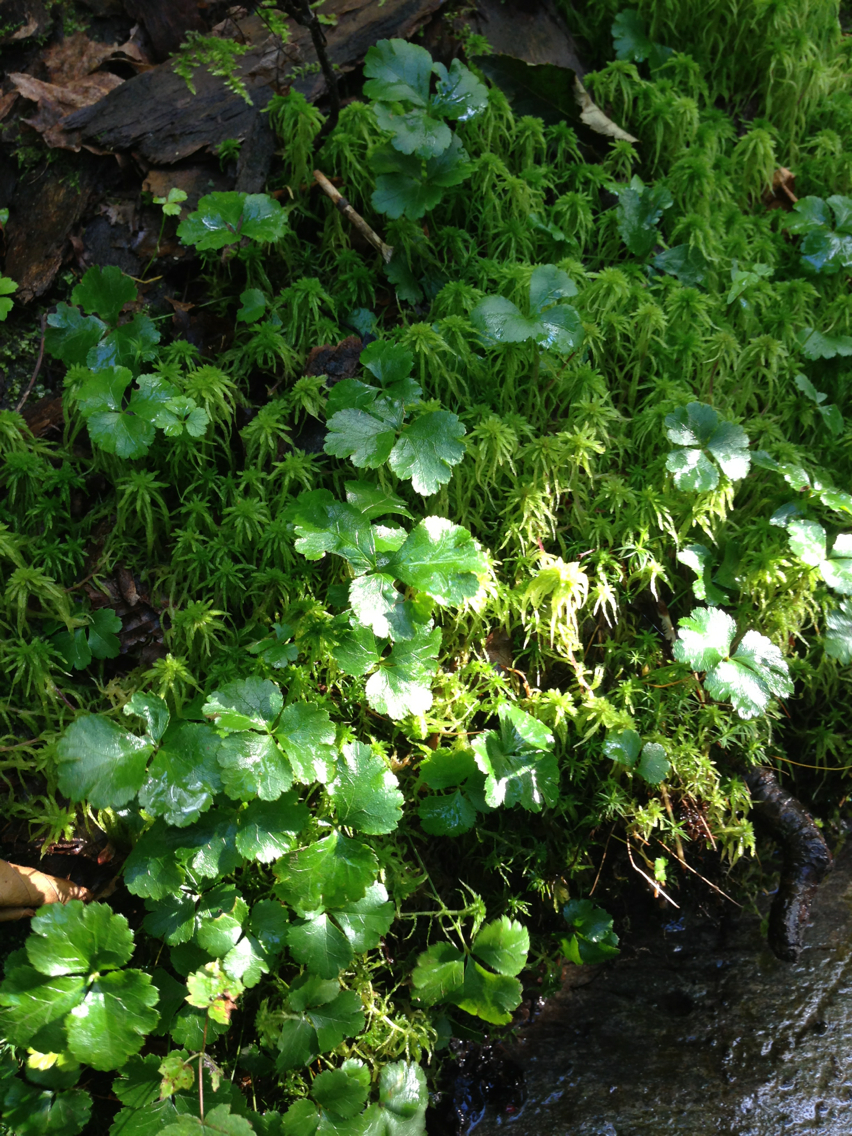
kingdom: Plantae
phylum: Tracheophyta
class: Magnoliopsida
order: Ranunculales
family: Ranunculaceae
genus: Coptis
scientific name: Coptis trifolia
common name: Canker-root
